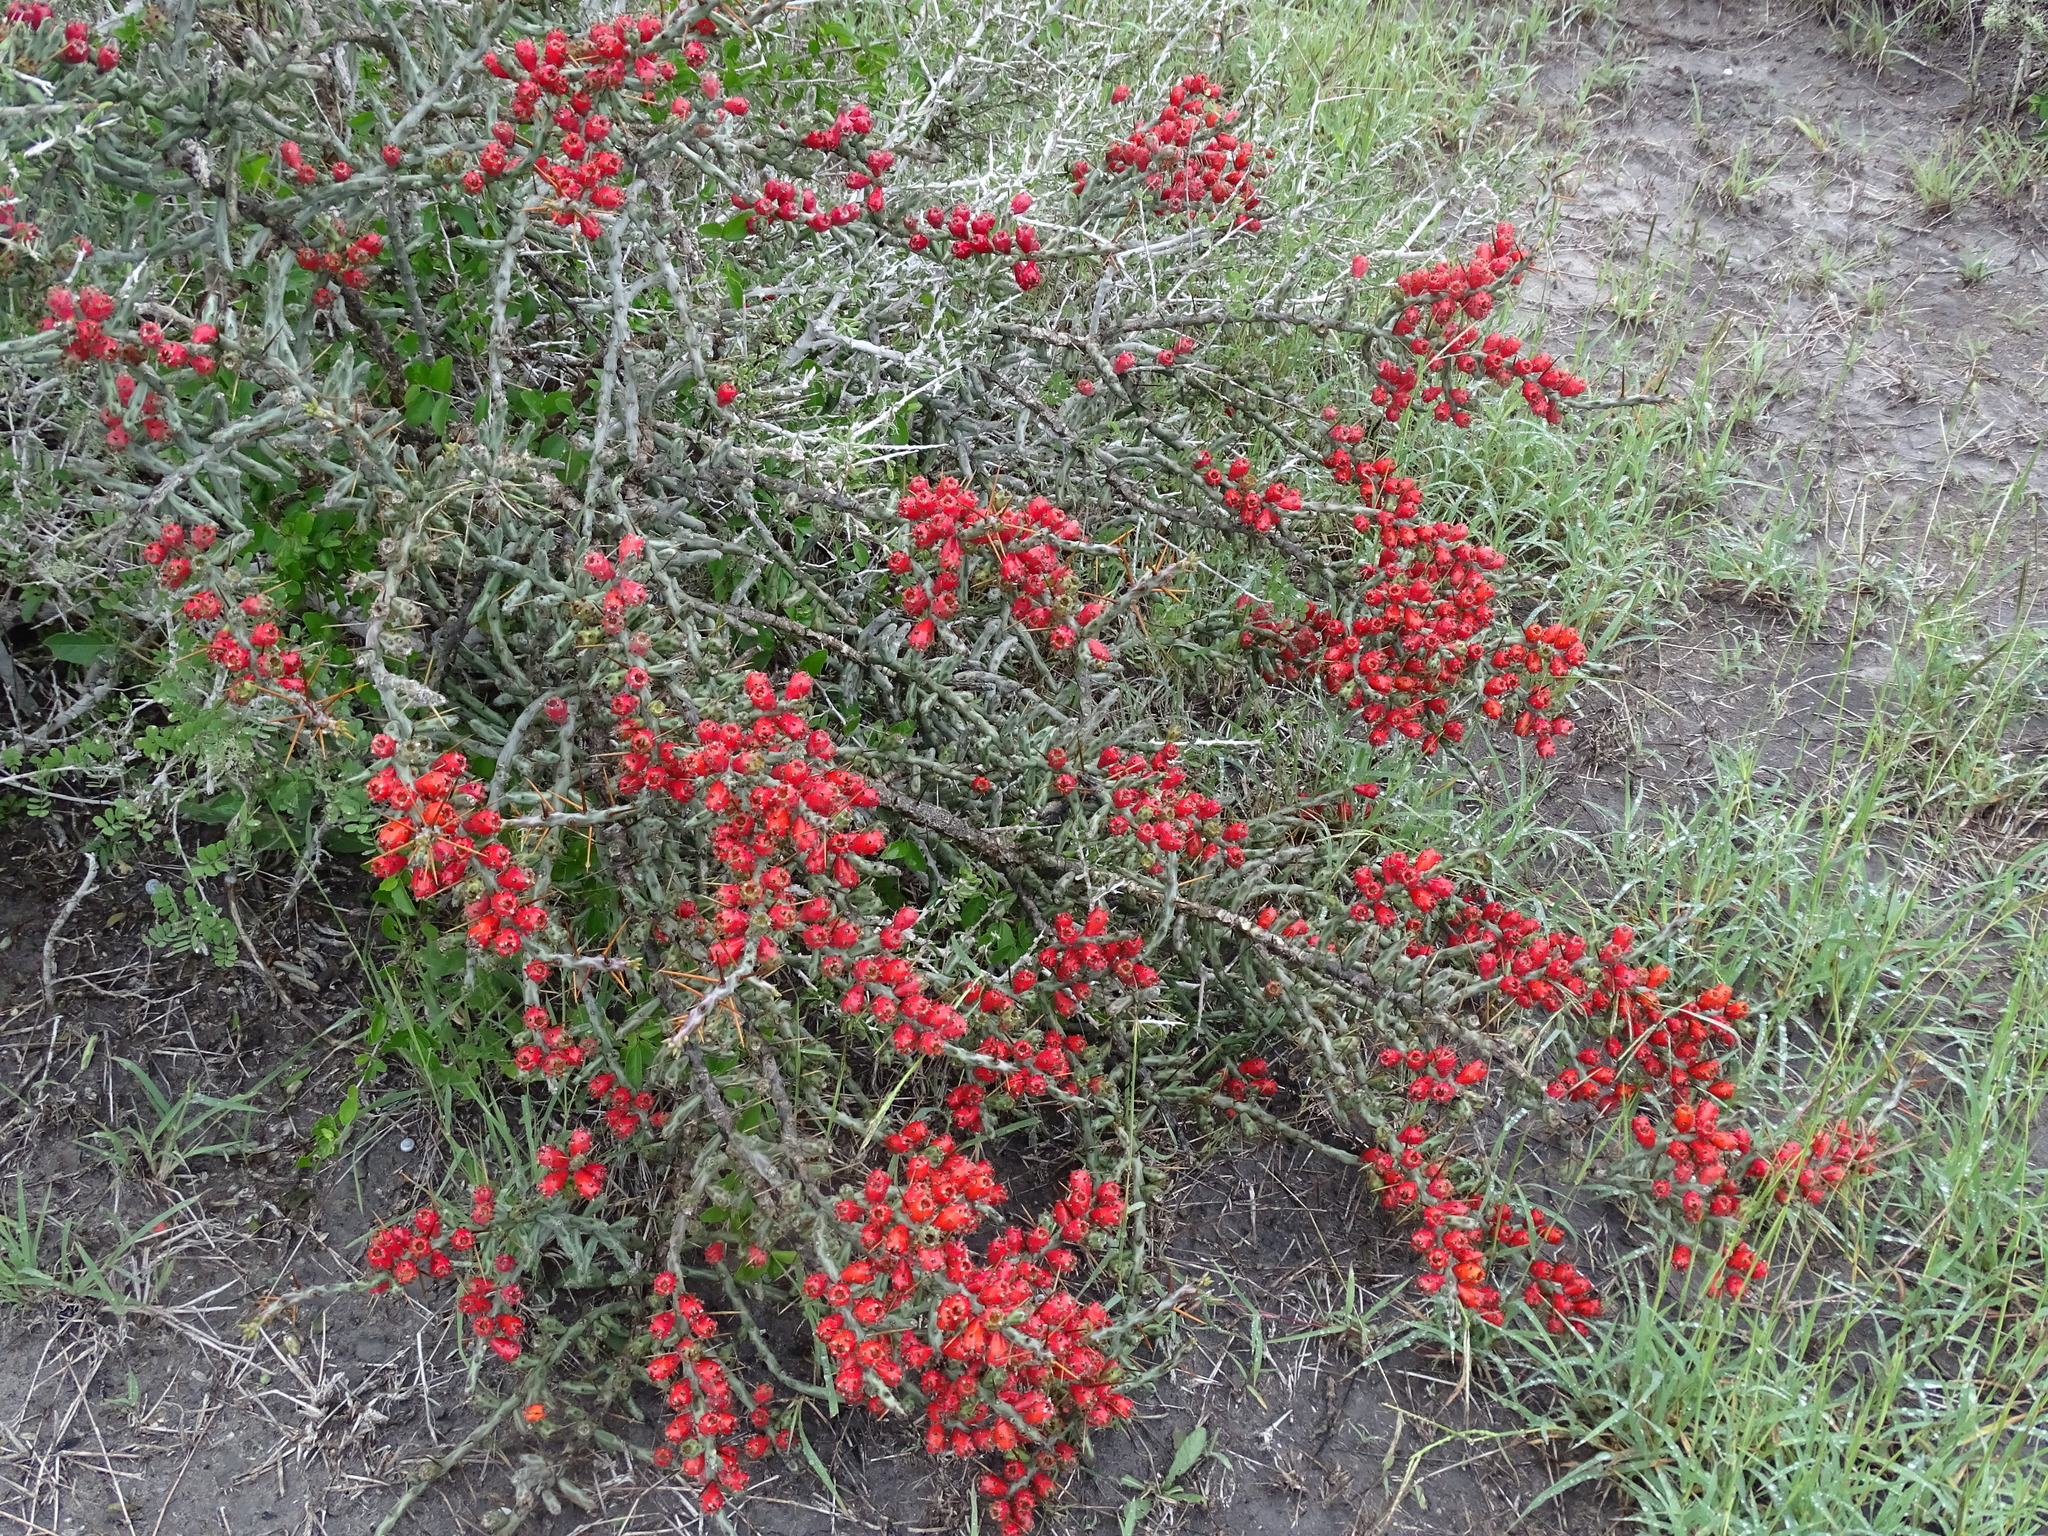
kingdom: Plantae
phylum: Tracheophyta
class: Magnoliopsida
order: Caryophyllales
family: Cactaceae
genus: Cylindropuntia
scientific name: Cylindropuntia leptocaulis
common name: Christmas cactus
